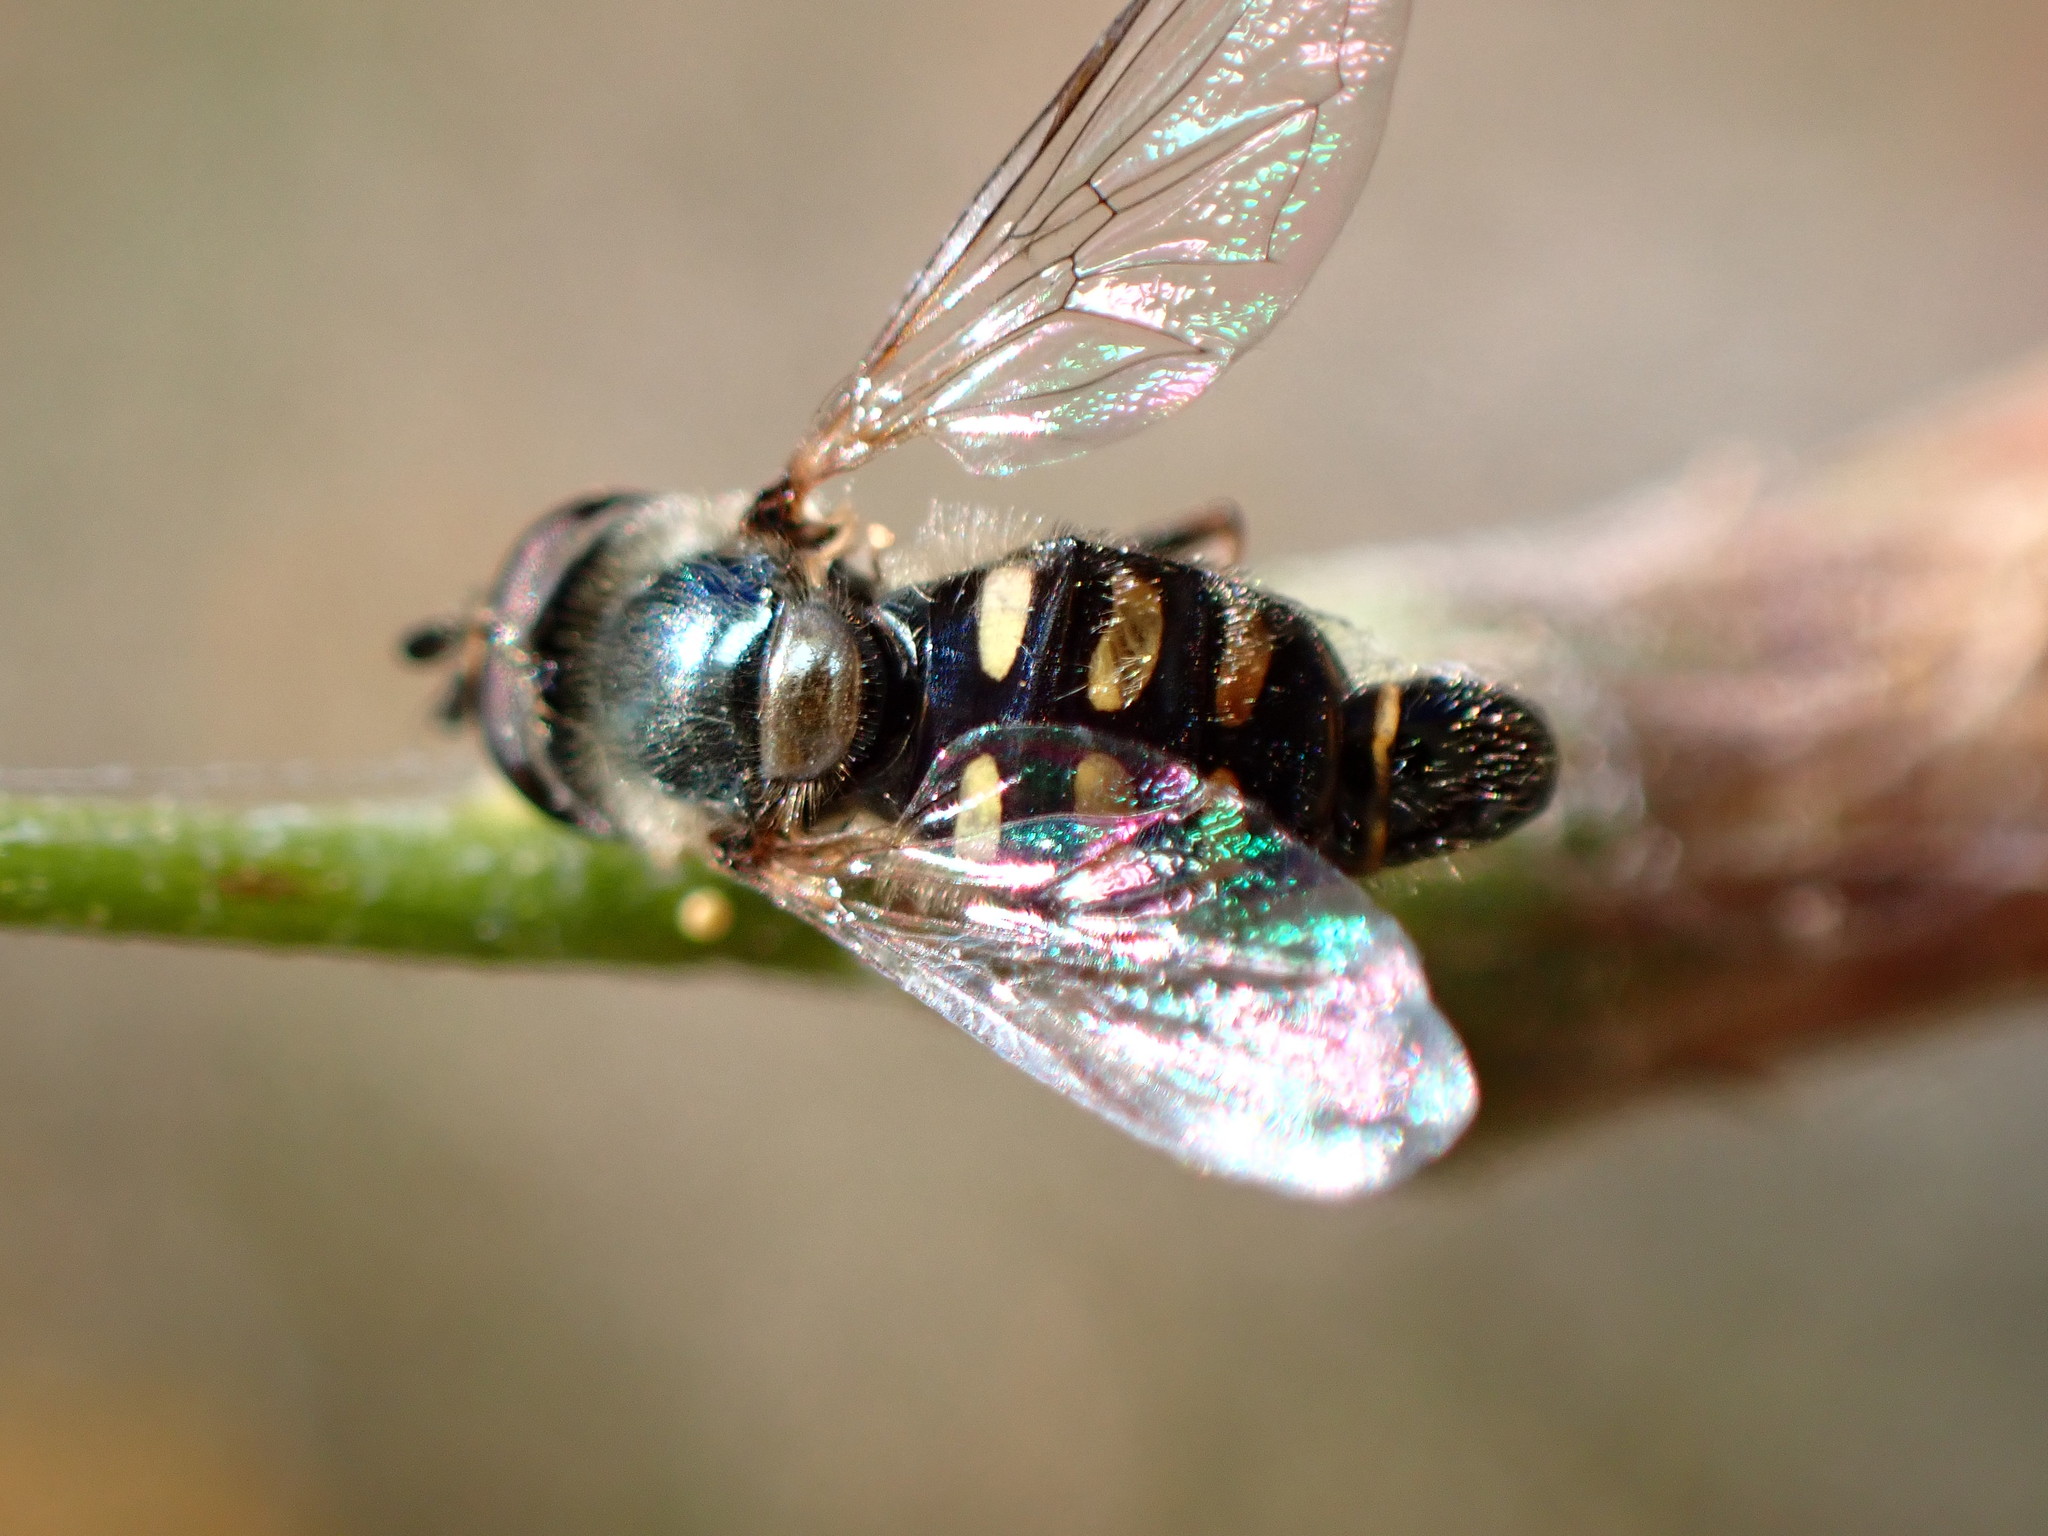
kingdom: Animalia
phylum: Arthropoda
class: Insecta
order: Diptera
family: Syrphidae
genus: Eupeodes
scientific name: Eupeodes volucris
